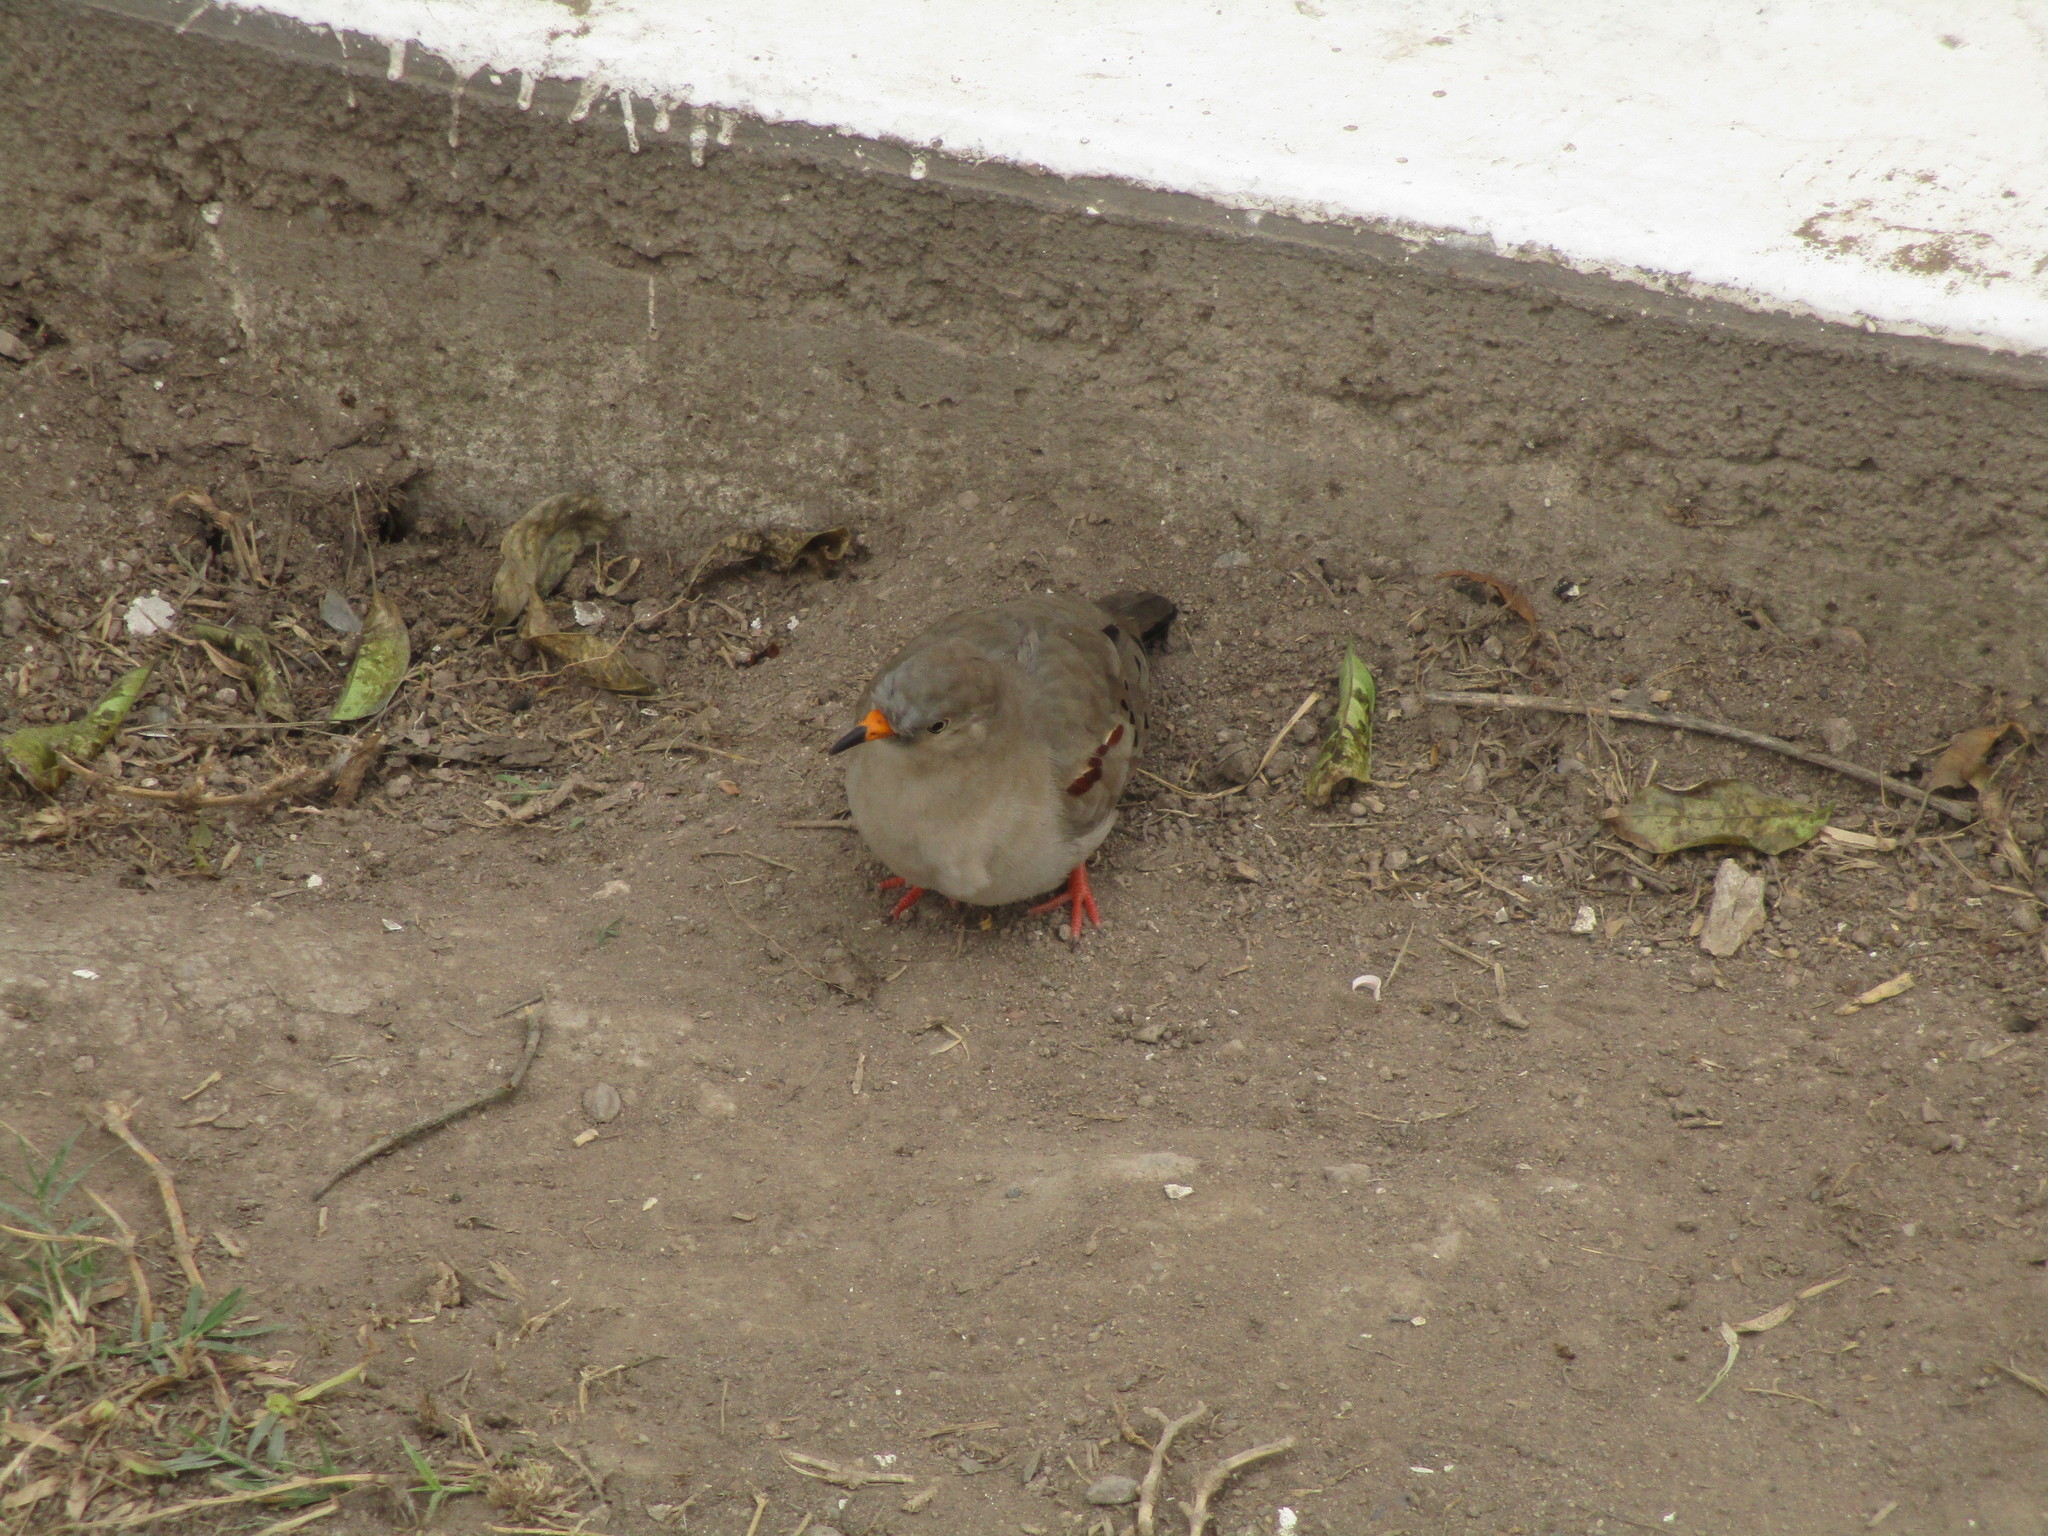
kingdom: Animalia
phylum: Chordata
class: Aves
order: Columbiformes
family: Columbidae
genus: Columbina
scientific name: Columbina cruziana
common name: Croaking ground dove
